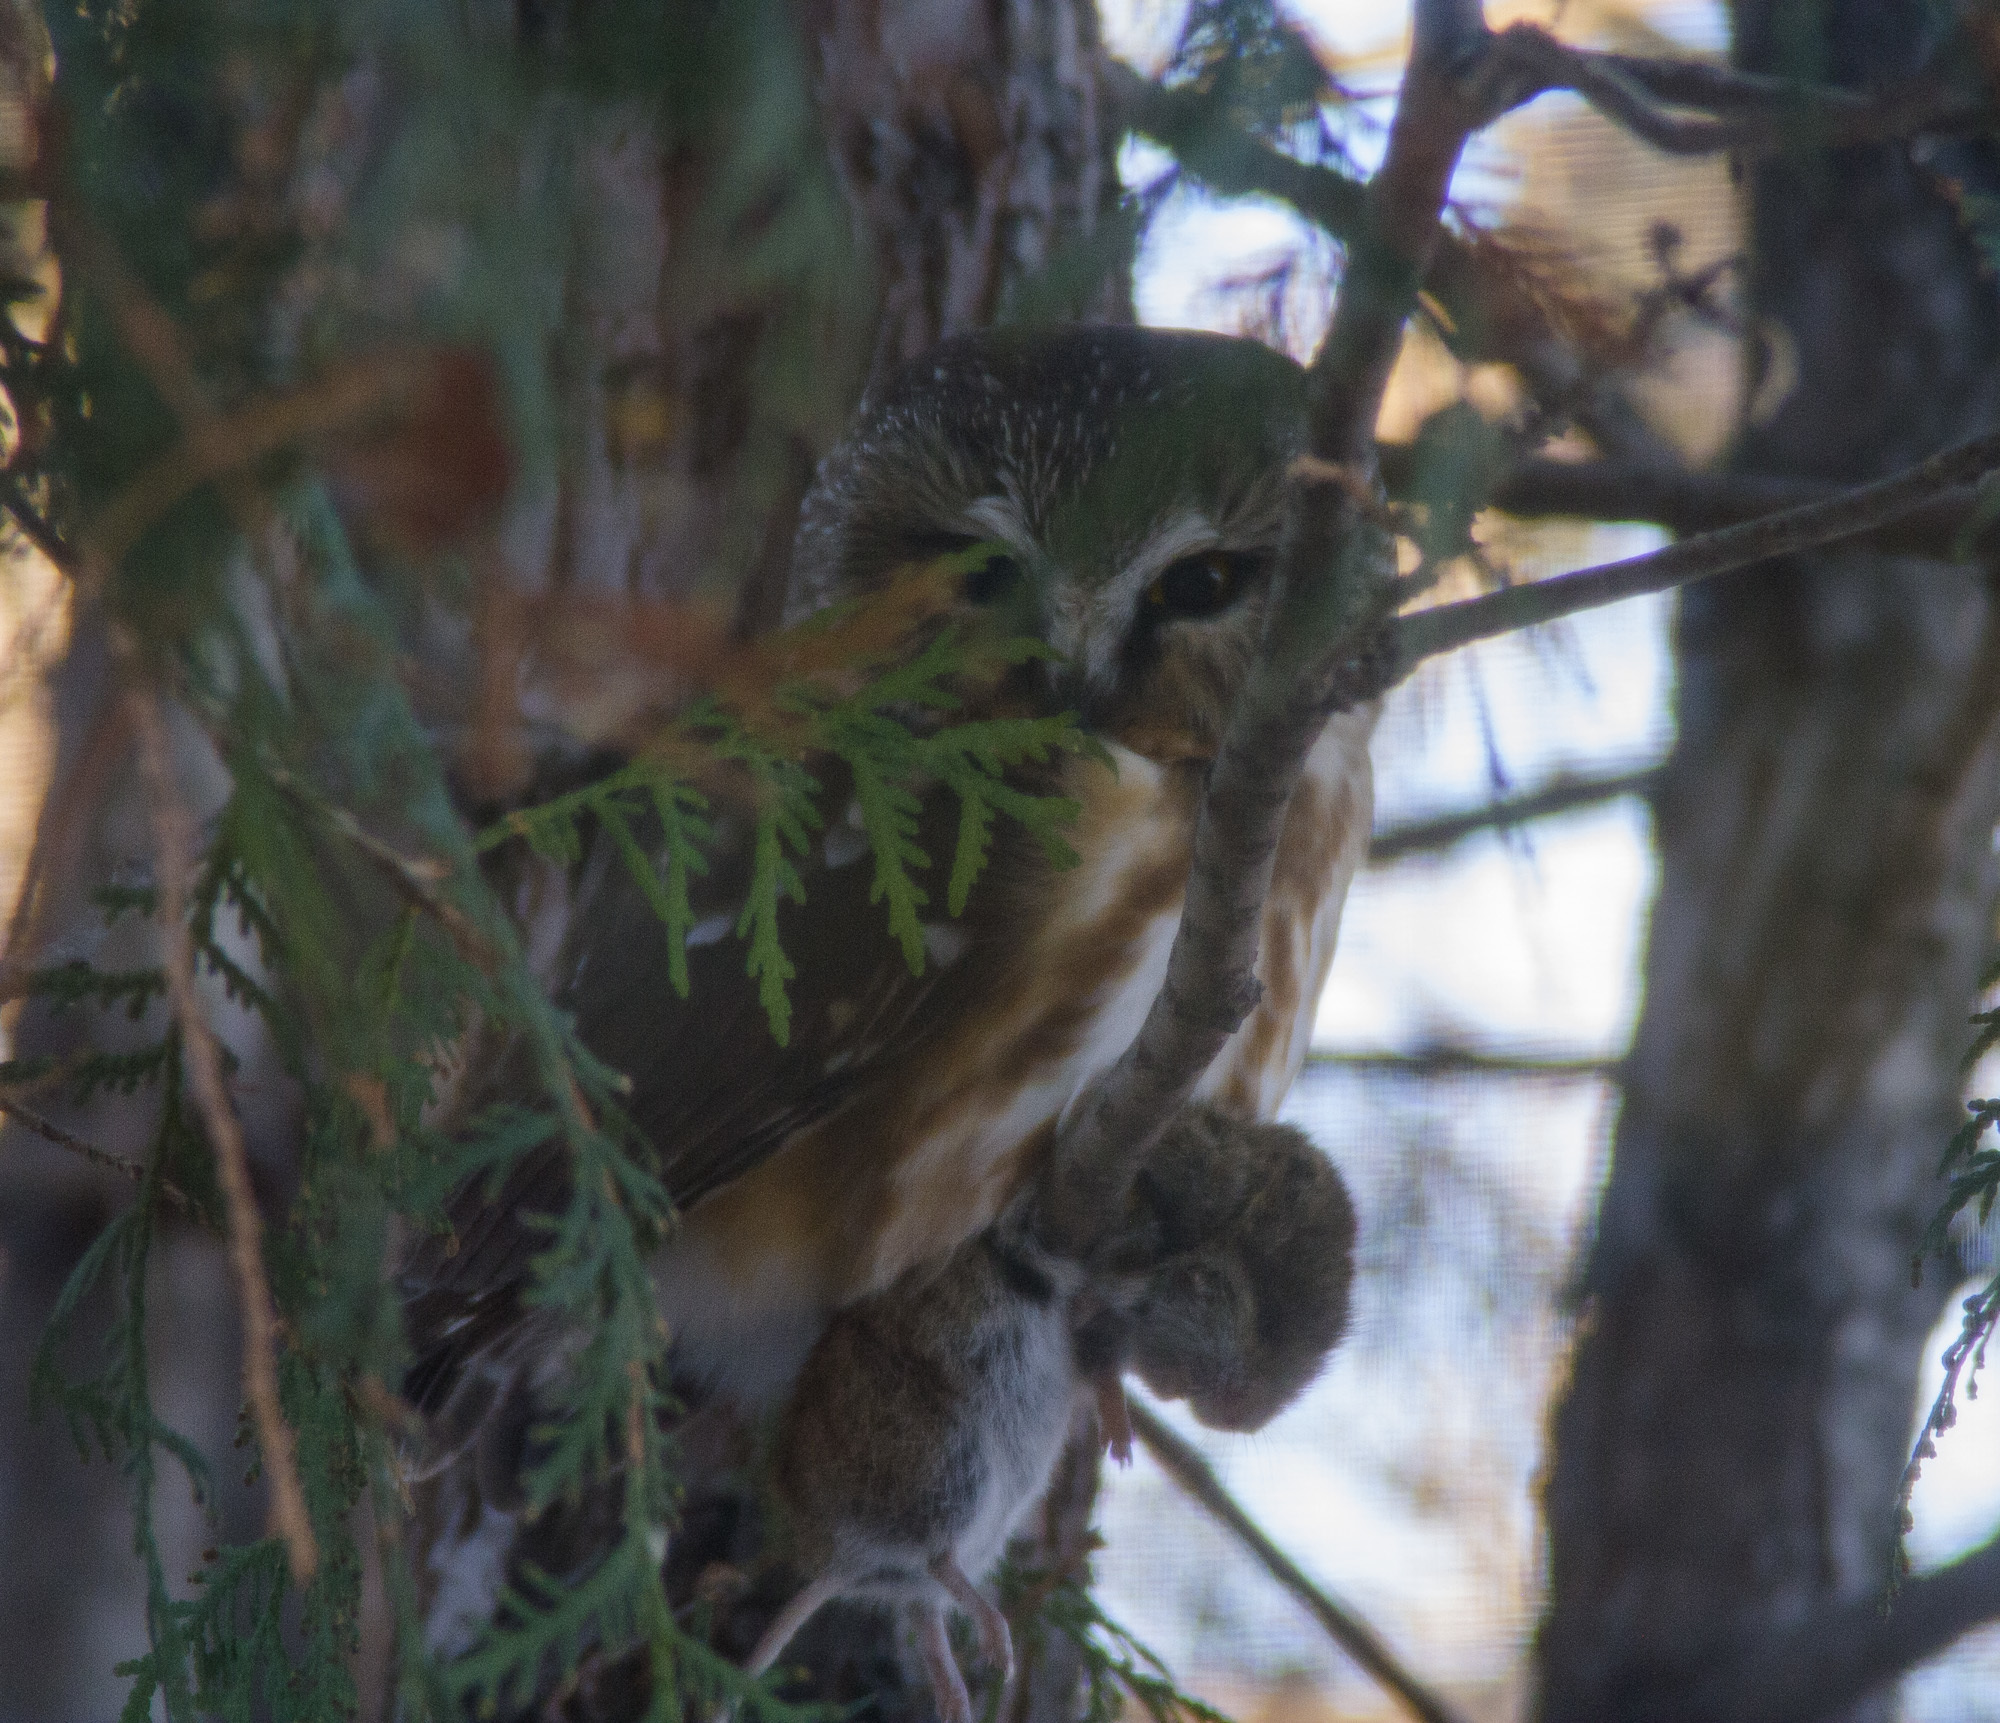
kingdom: Animalia
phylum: Chordata
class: Aves
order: Strigiformes
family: Strigidae
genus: Aegolius
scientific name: Aegolius acadicus
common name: Northern saw-whet owl
